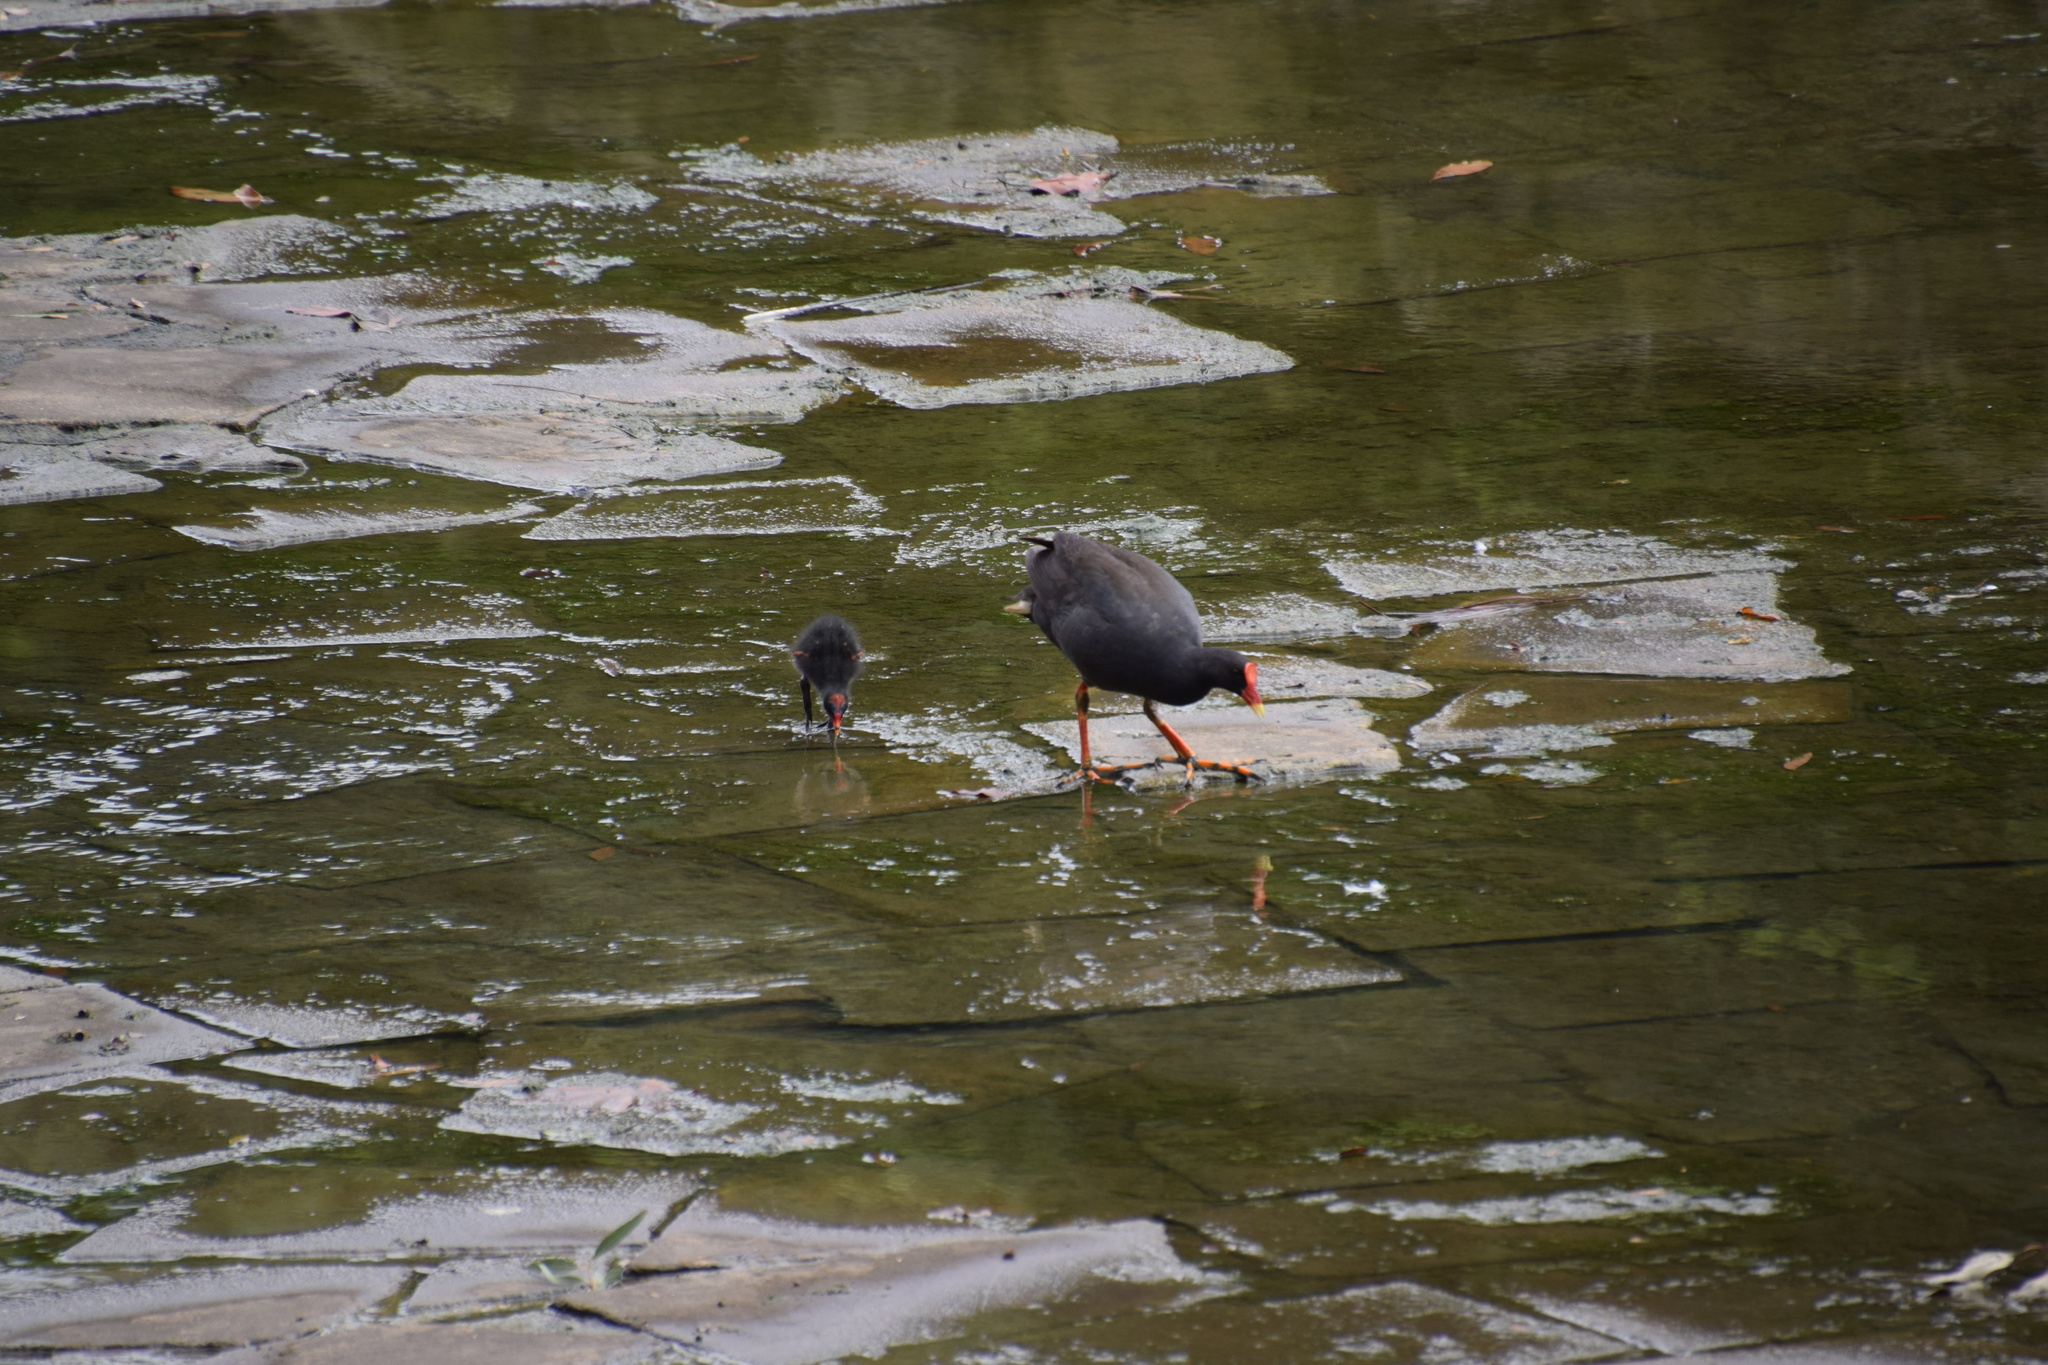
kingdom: Animalia
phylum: Chordata
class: Aves
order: Gruiformes
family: Rallidae
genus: Gallinula
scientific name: Gallinula tenebrosa
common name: Dusky moorhen
